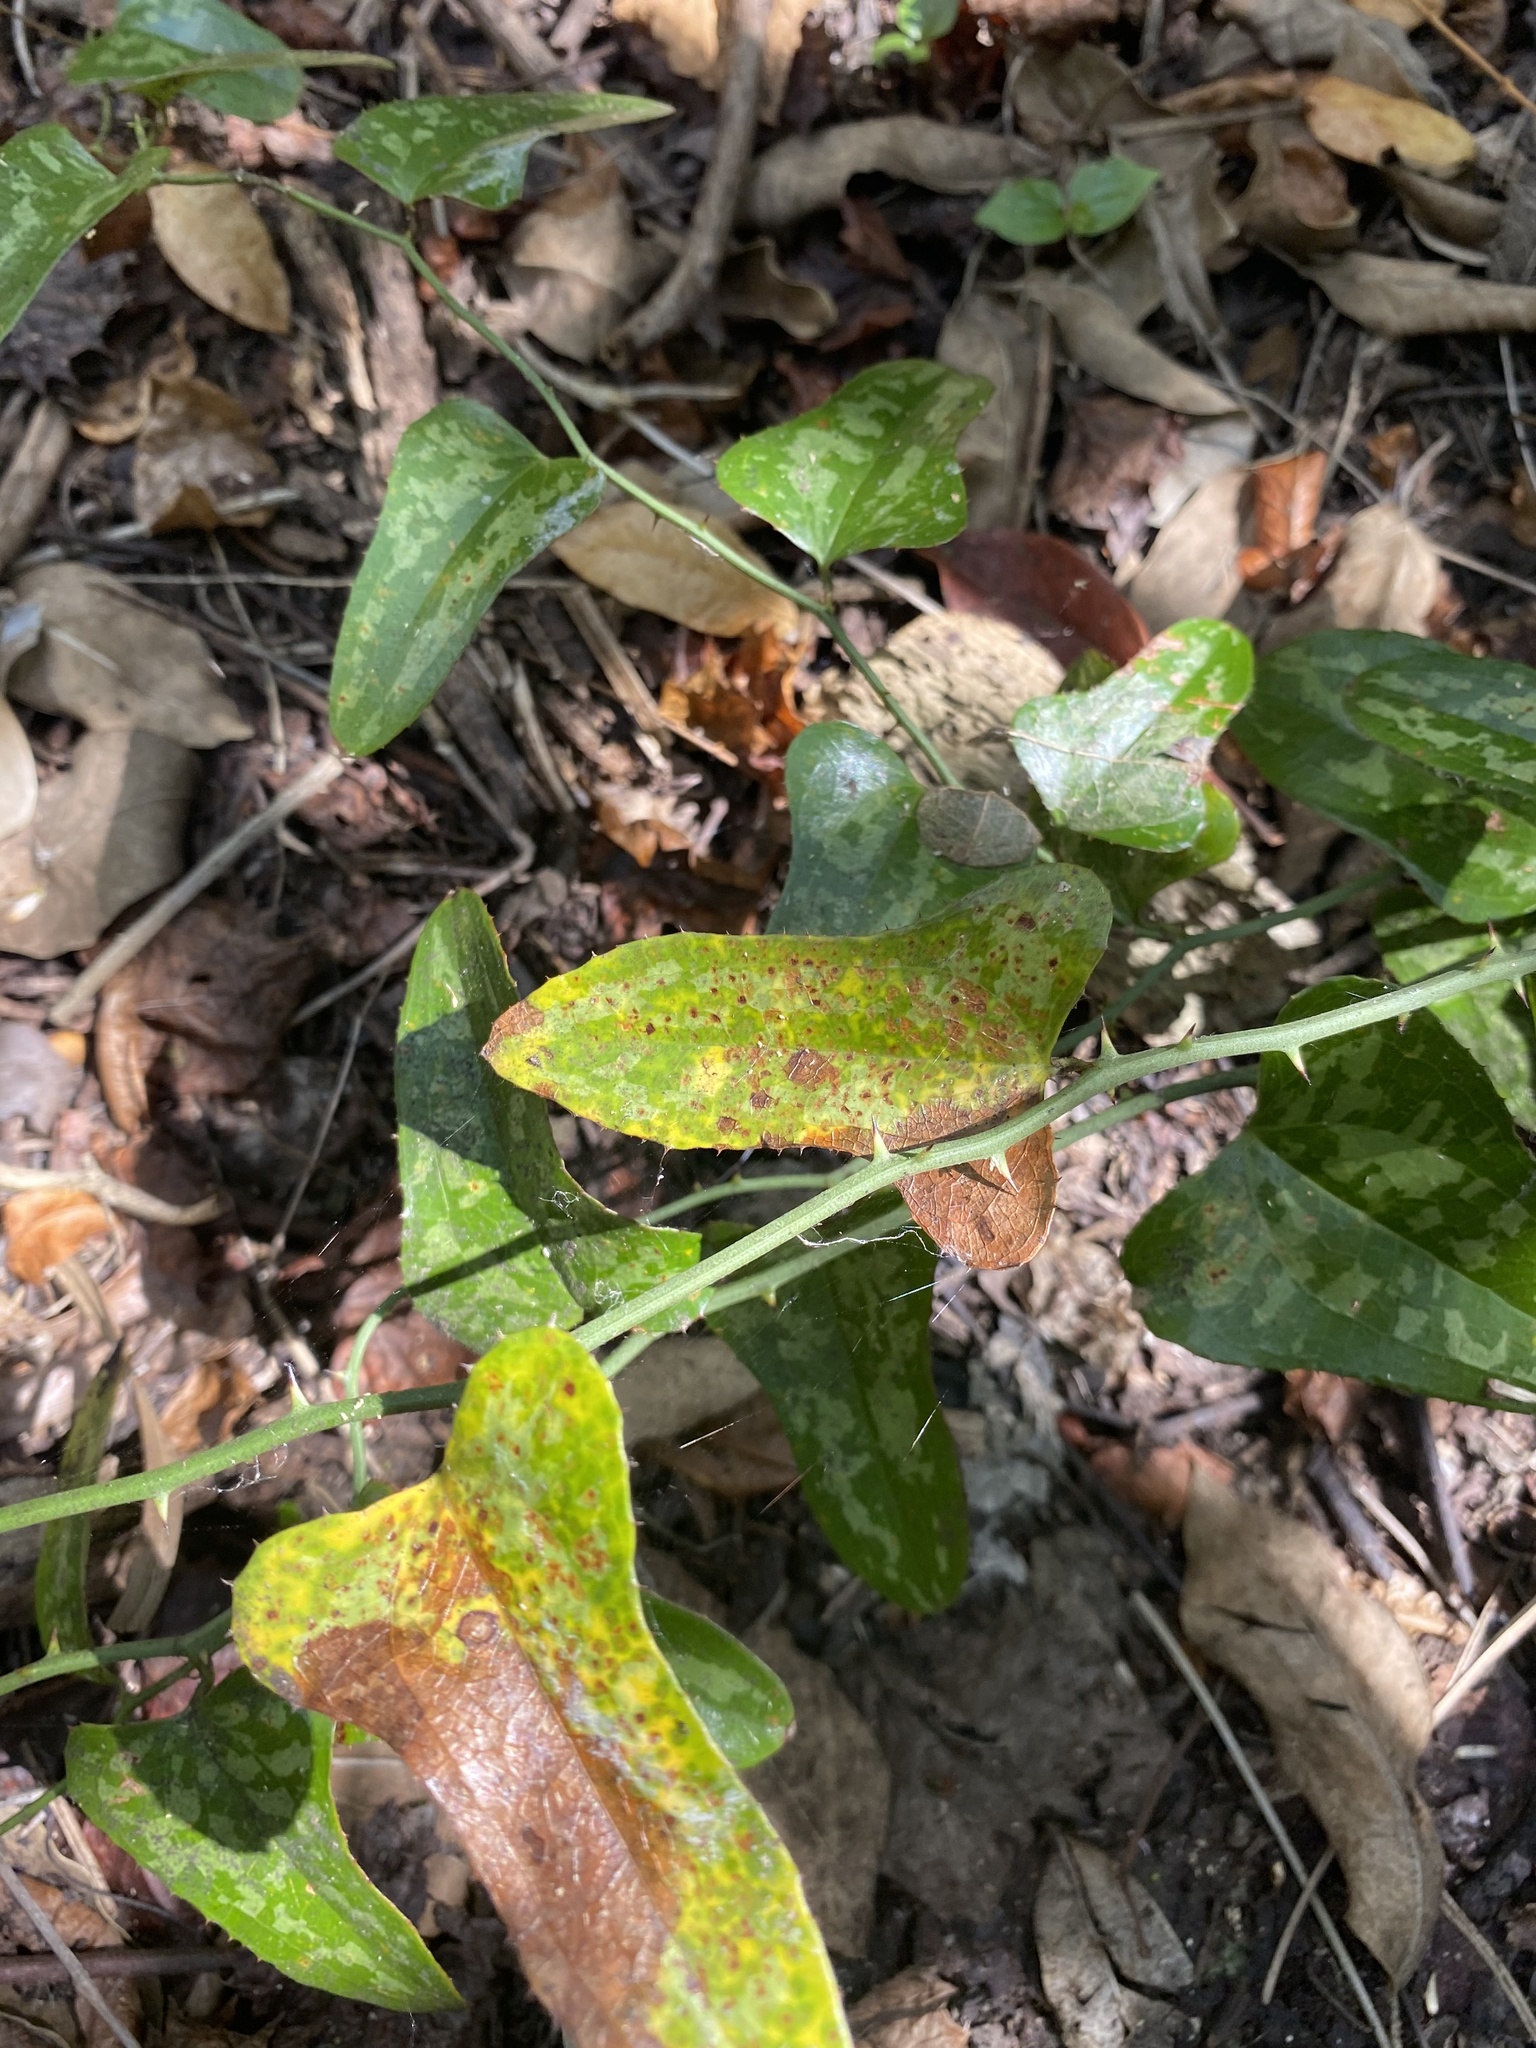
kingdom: Plantae
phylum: Tracheophyta
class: Liliopsida
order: Liliales
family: Smilacaceae
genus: Smilax
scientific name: Smilax bona-nox
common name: Catbrier
